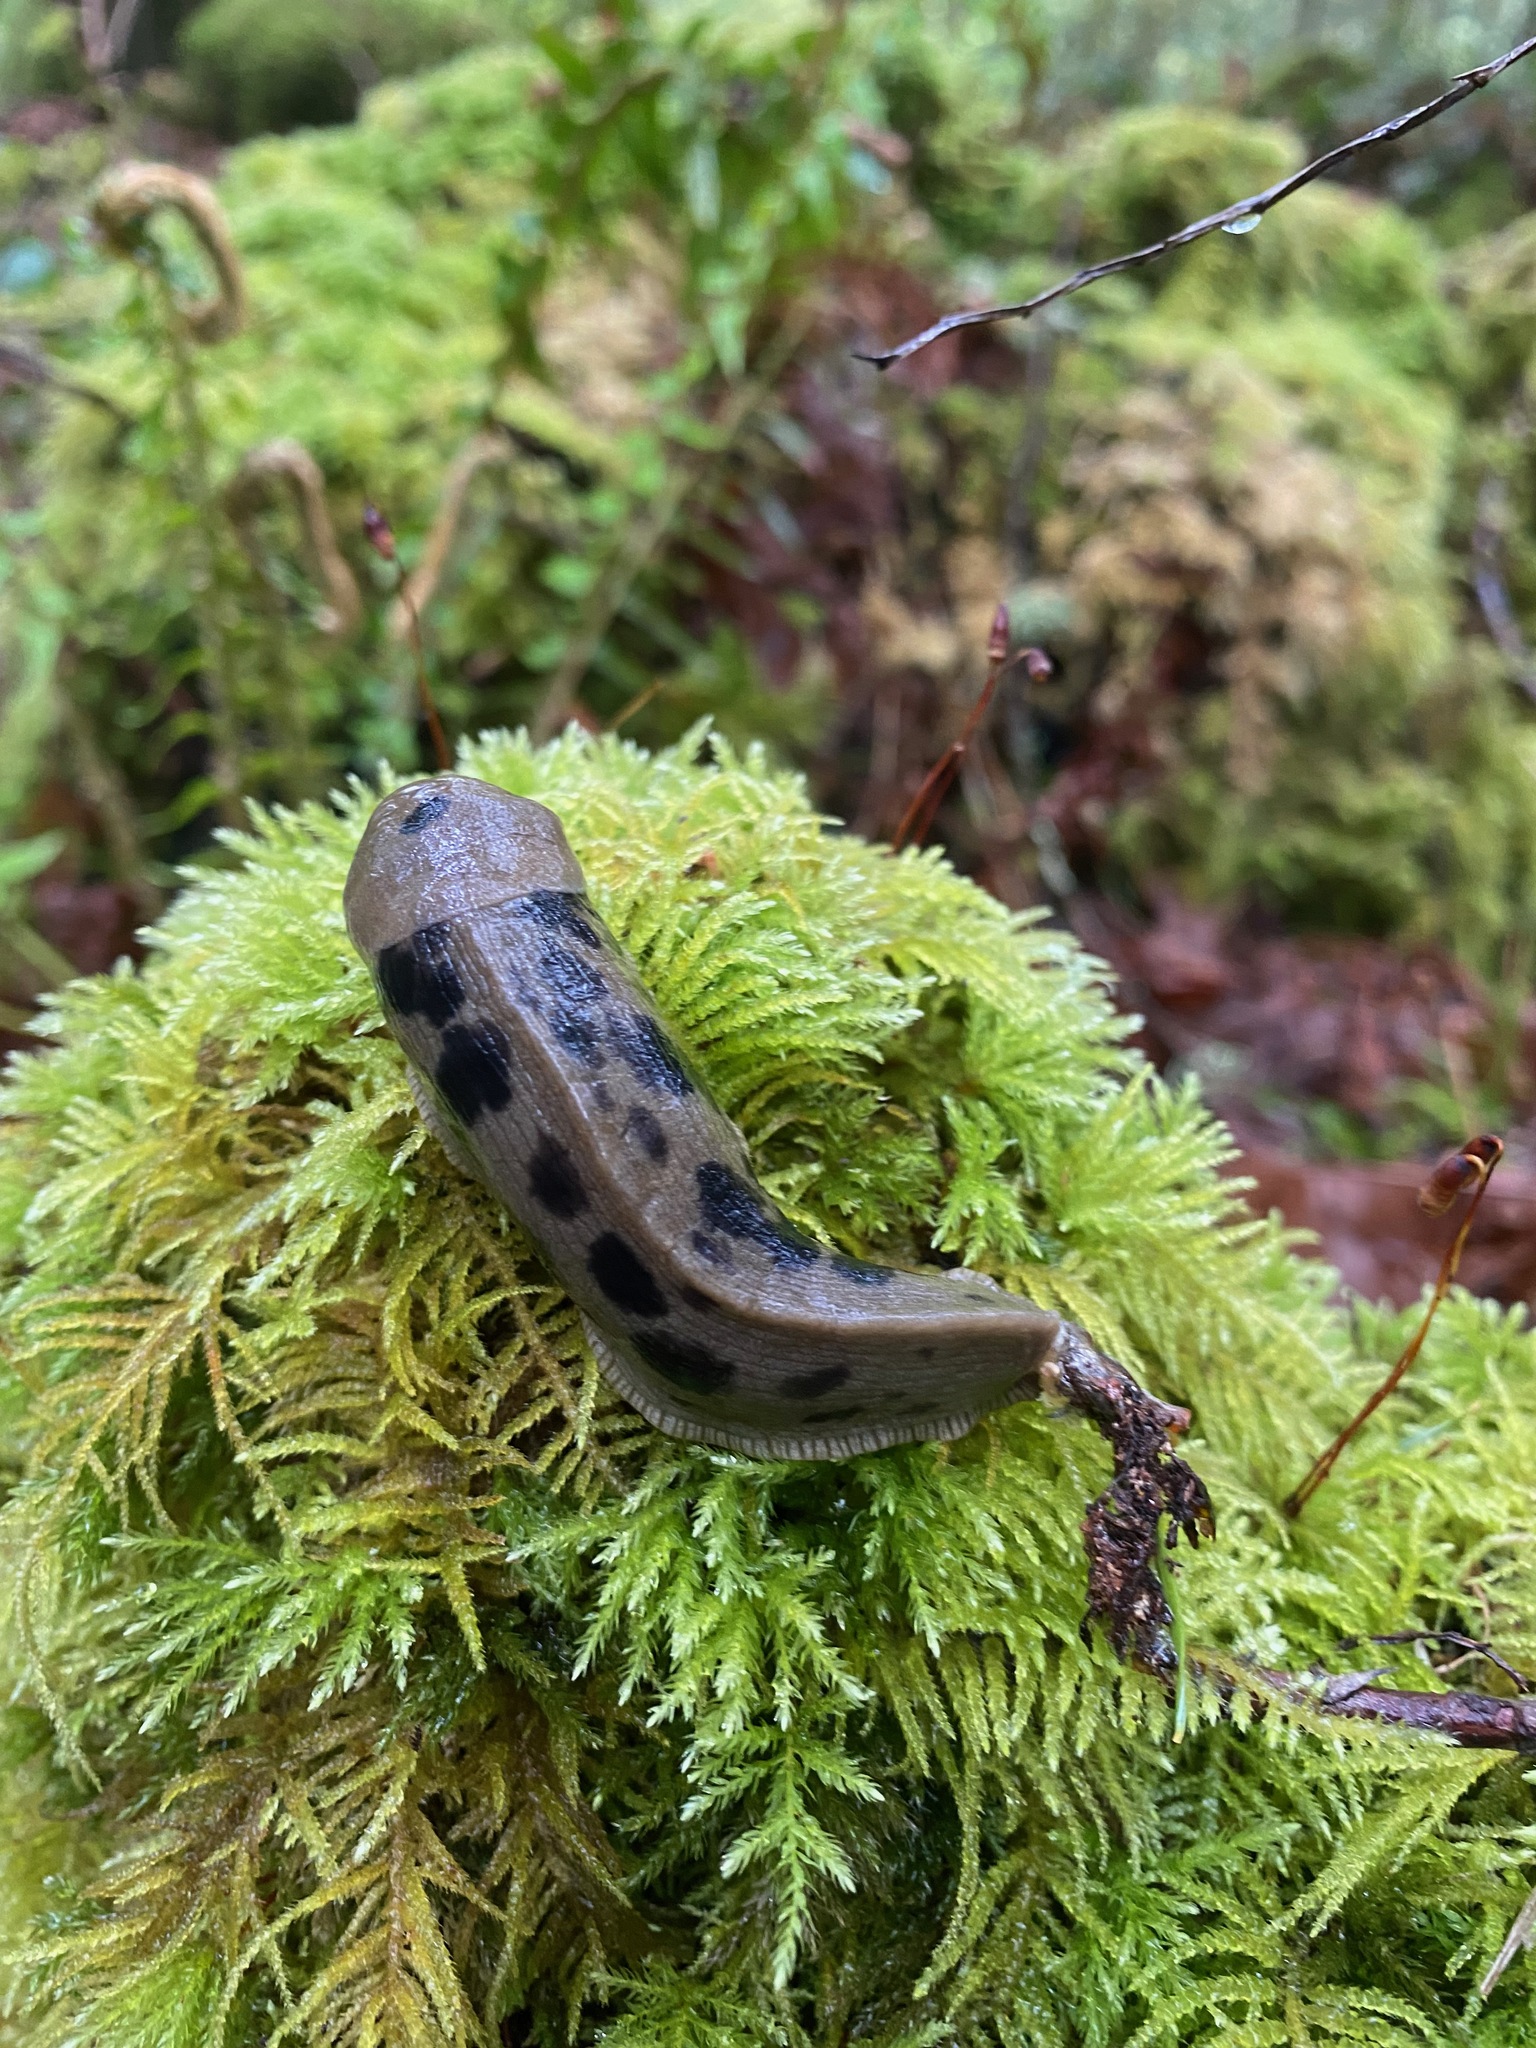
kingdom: Animalia
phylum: Mollusca
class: Gastropoda
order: Stylommatophora
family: Ariolimacidae
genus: Ariolimax
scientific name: Ariolimax columbianus
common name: Pacific banana slug
